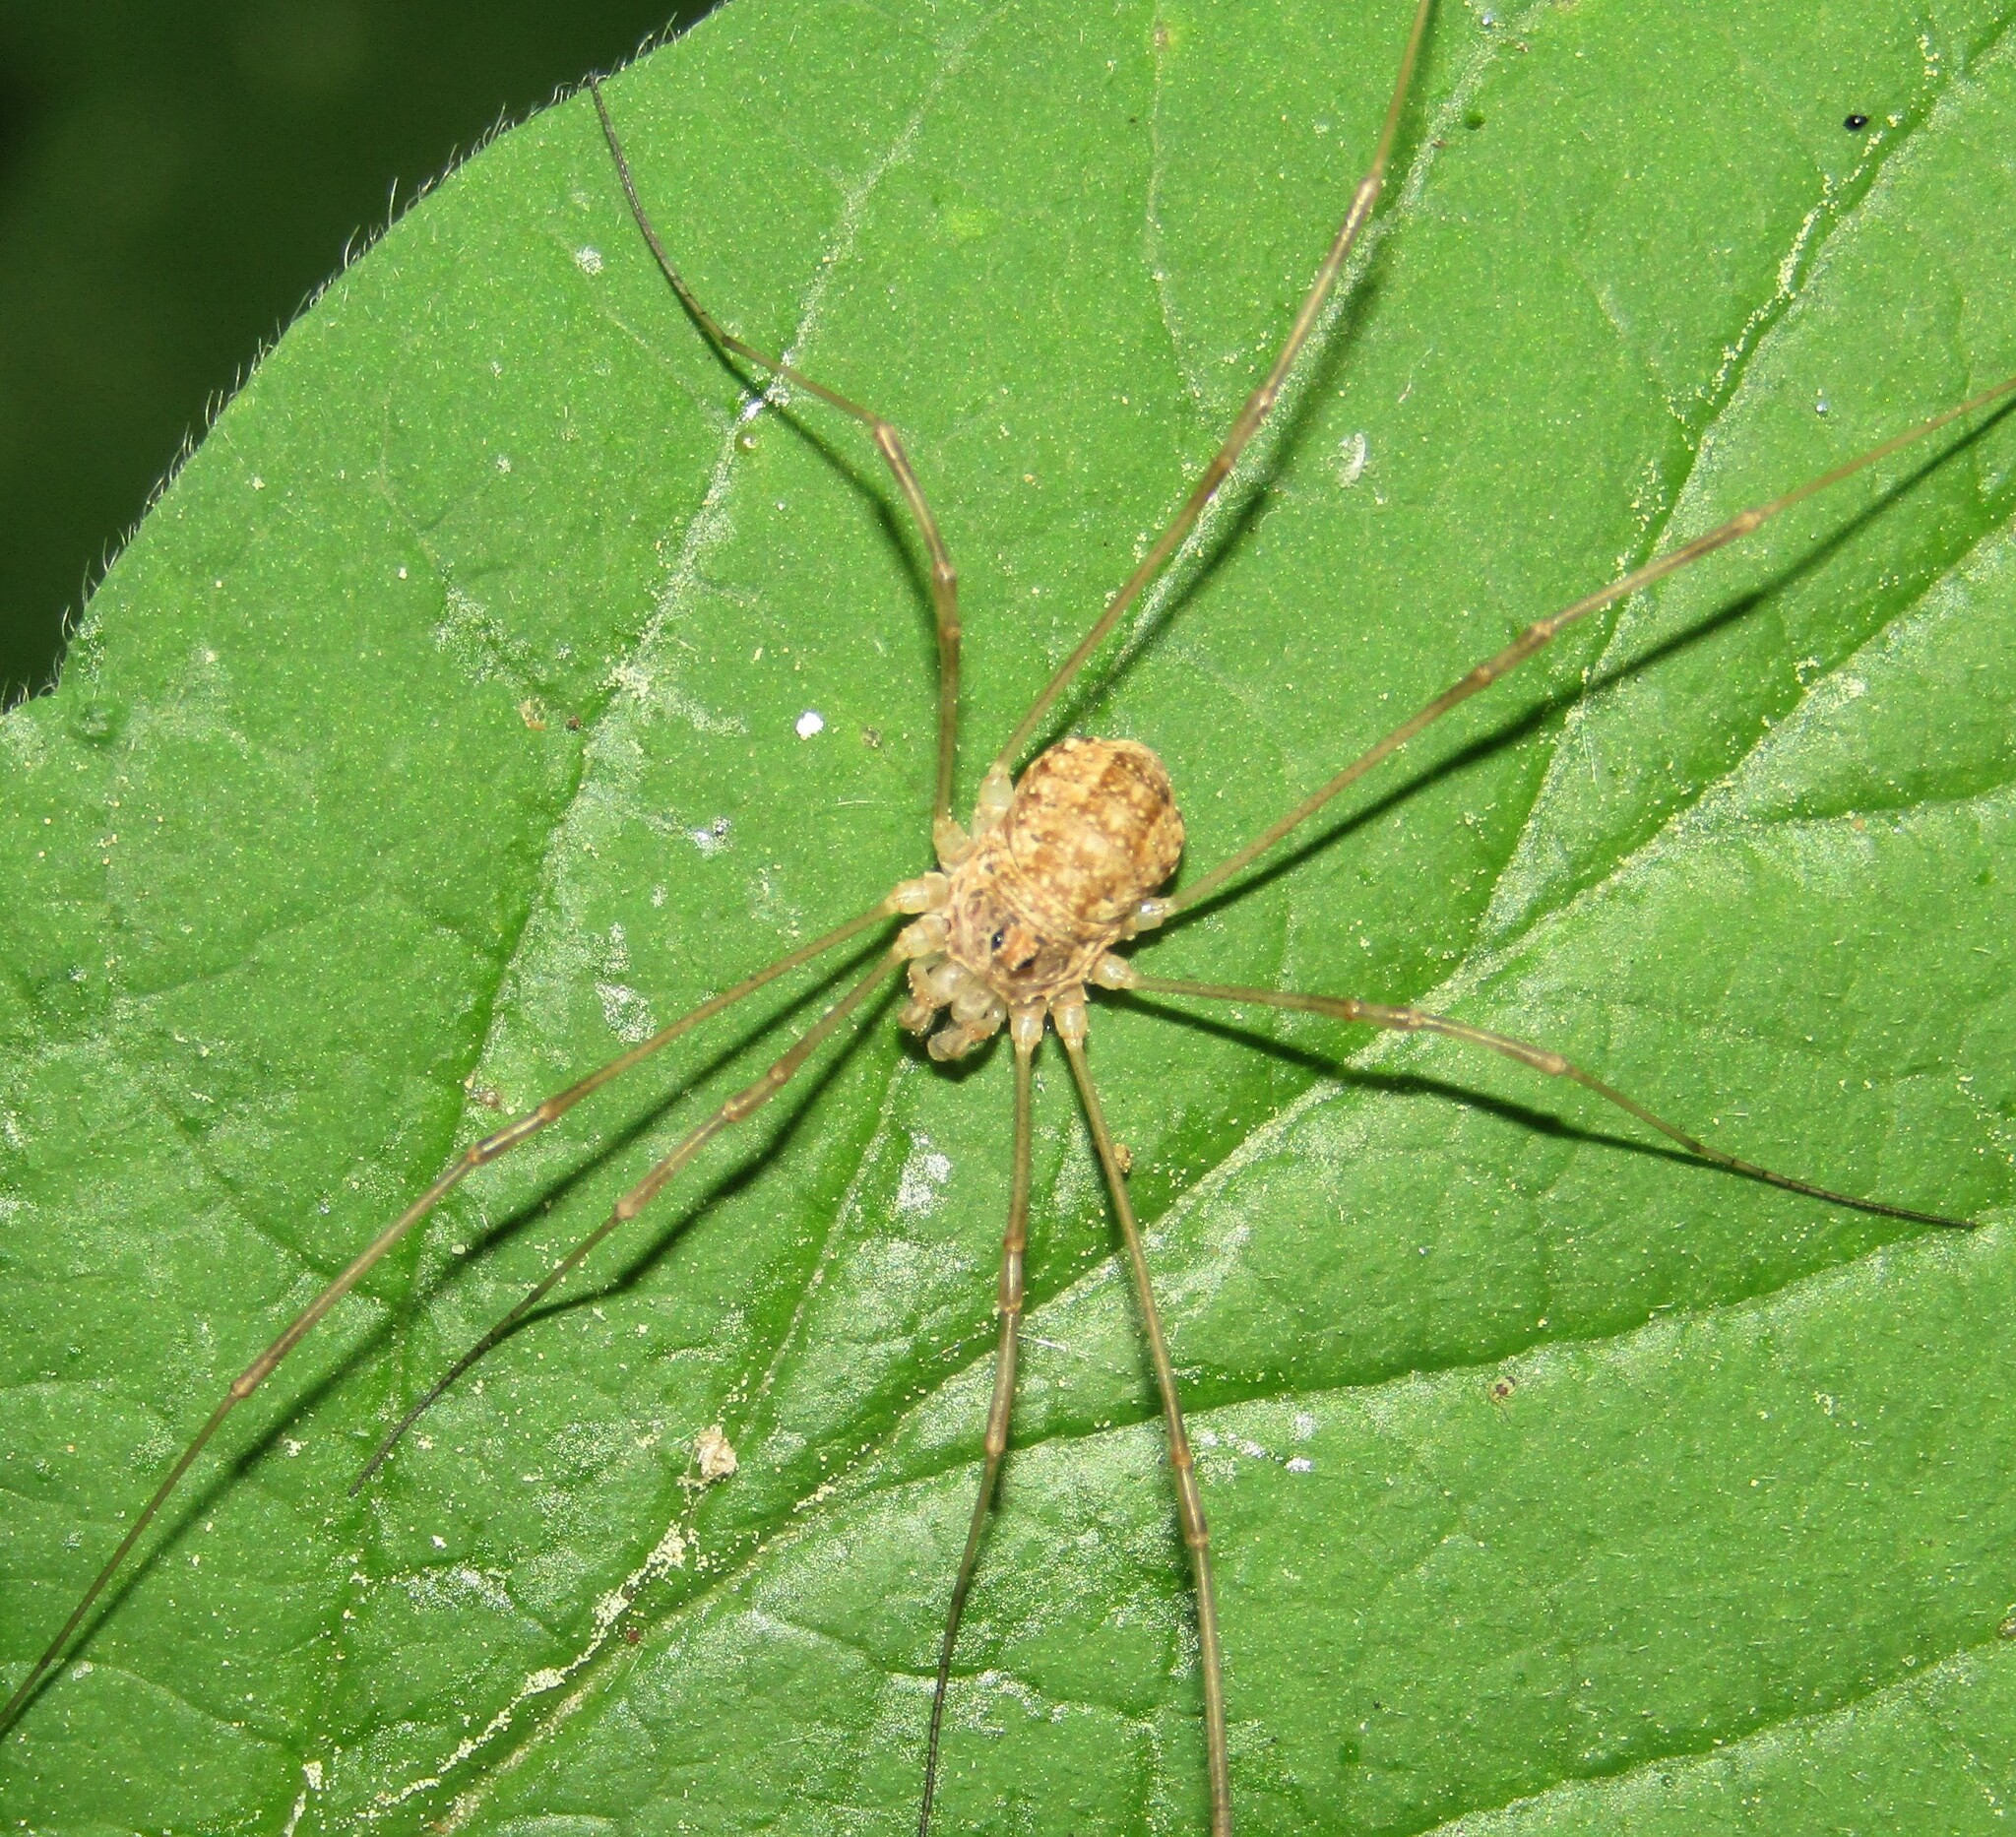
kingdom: Animalia
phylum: Arthropoda
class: Arachnida
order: Opiliones
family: Phalangiidae
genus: Rilaena
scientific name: Rilaena triangularis
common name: Spring harvestman
